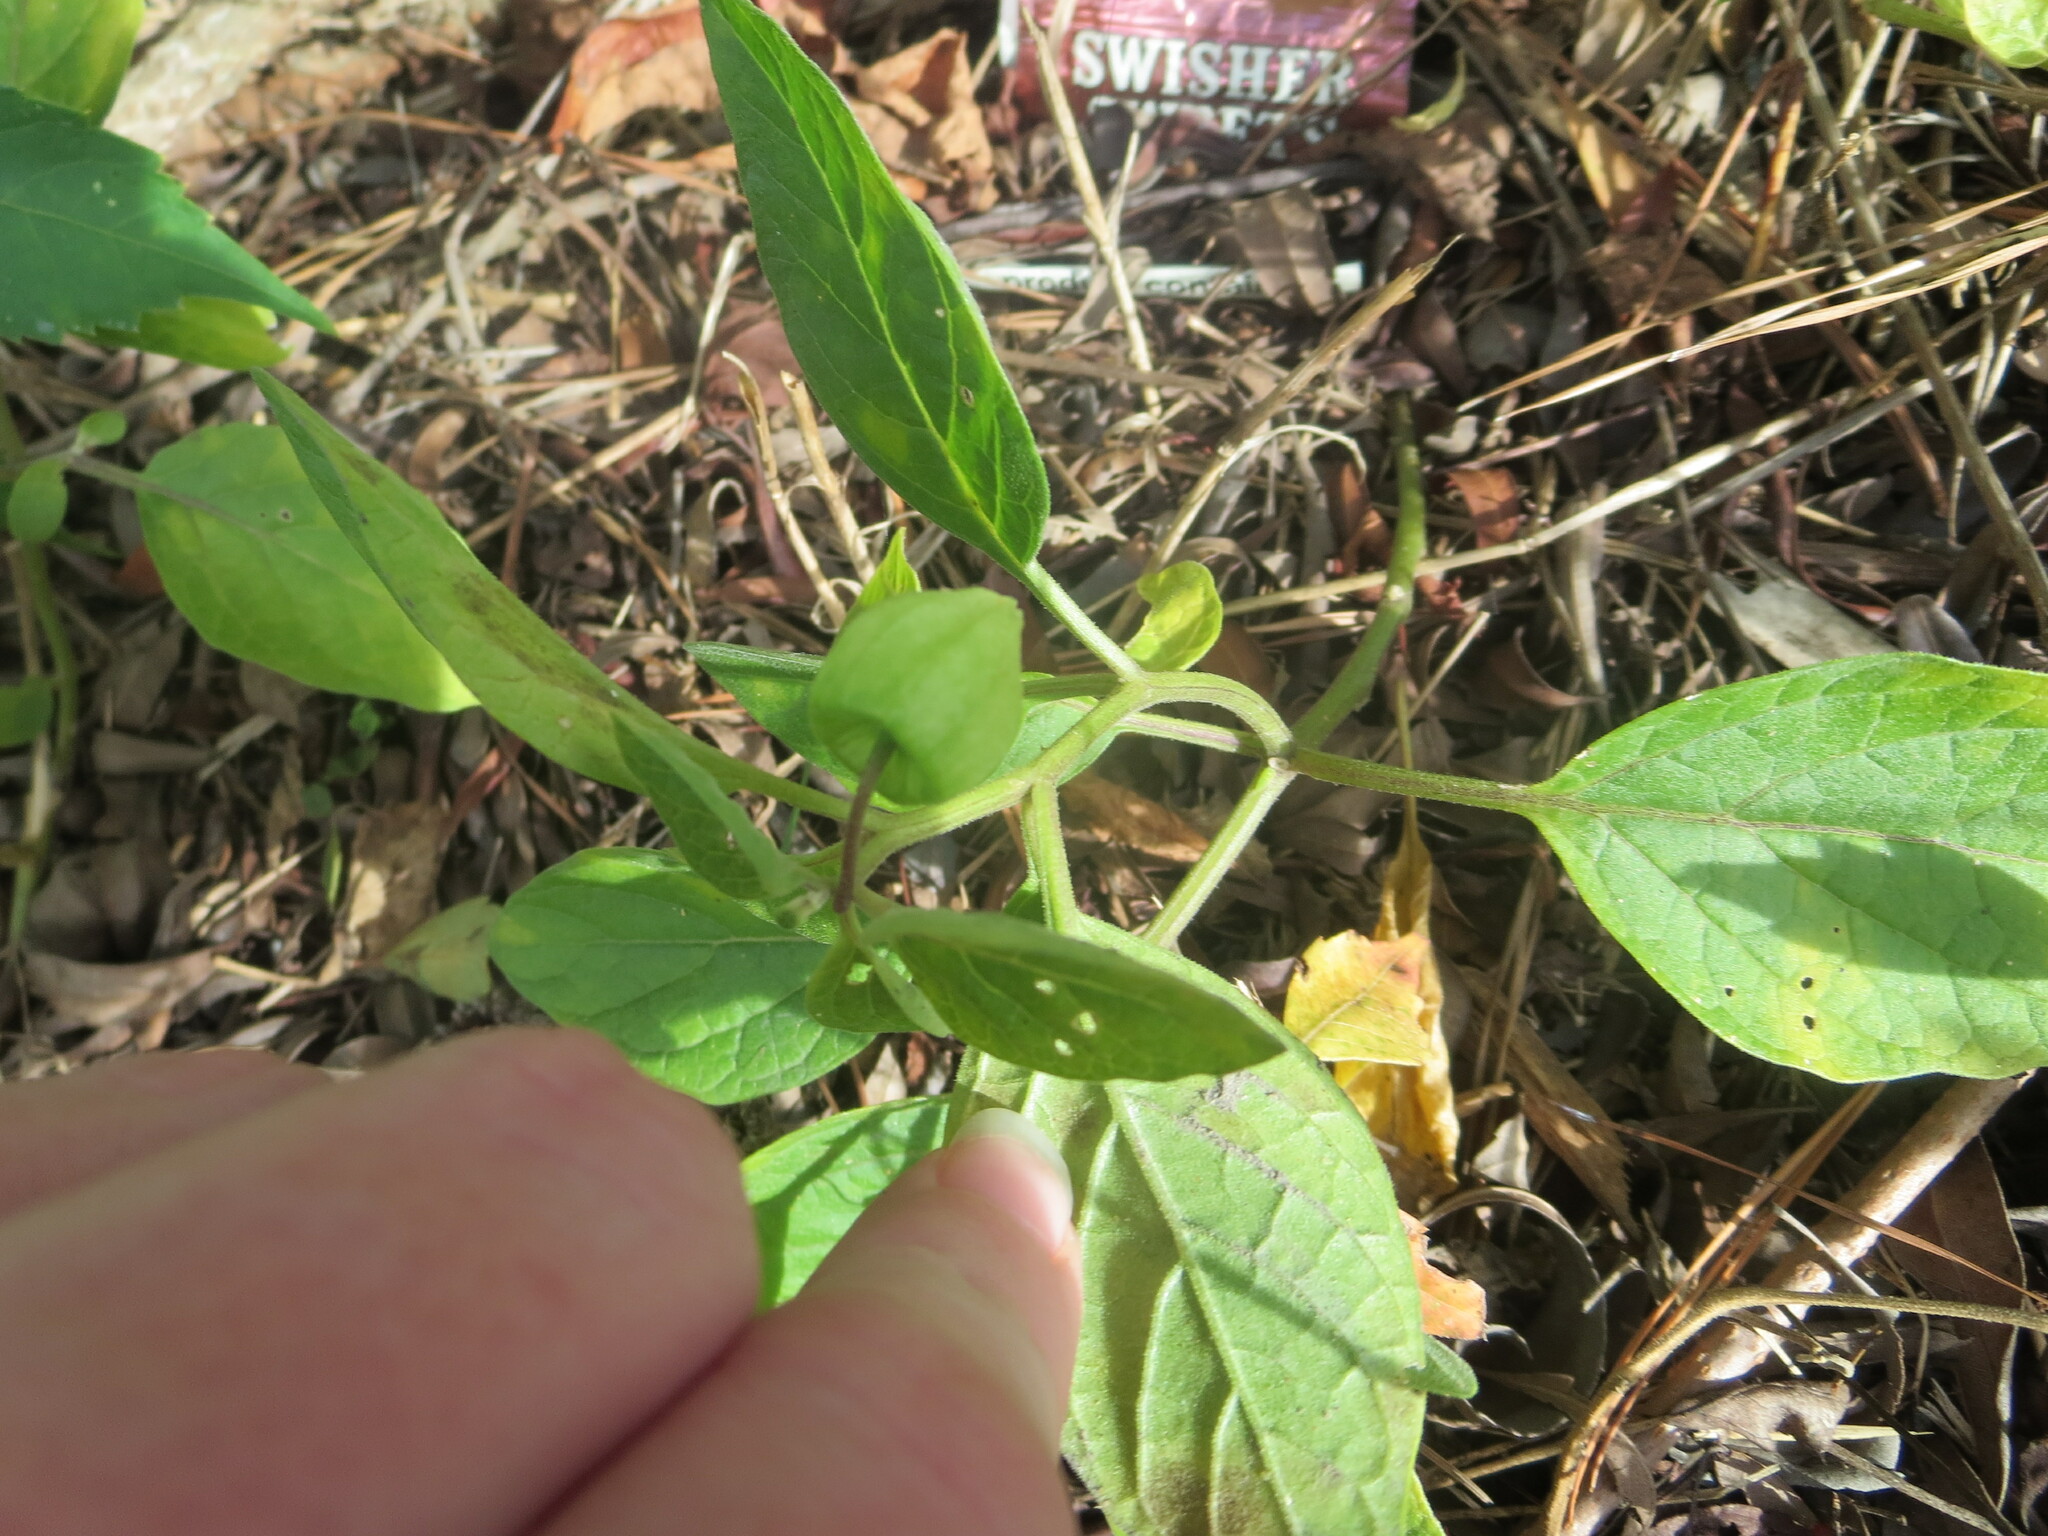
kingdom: Plantae
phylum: Tracheophyta
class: Magnoliopsida
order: Solanales
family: Solanaceae
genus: Physalis
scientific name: Physalis walteri
